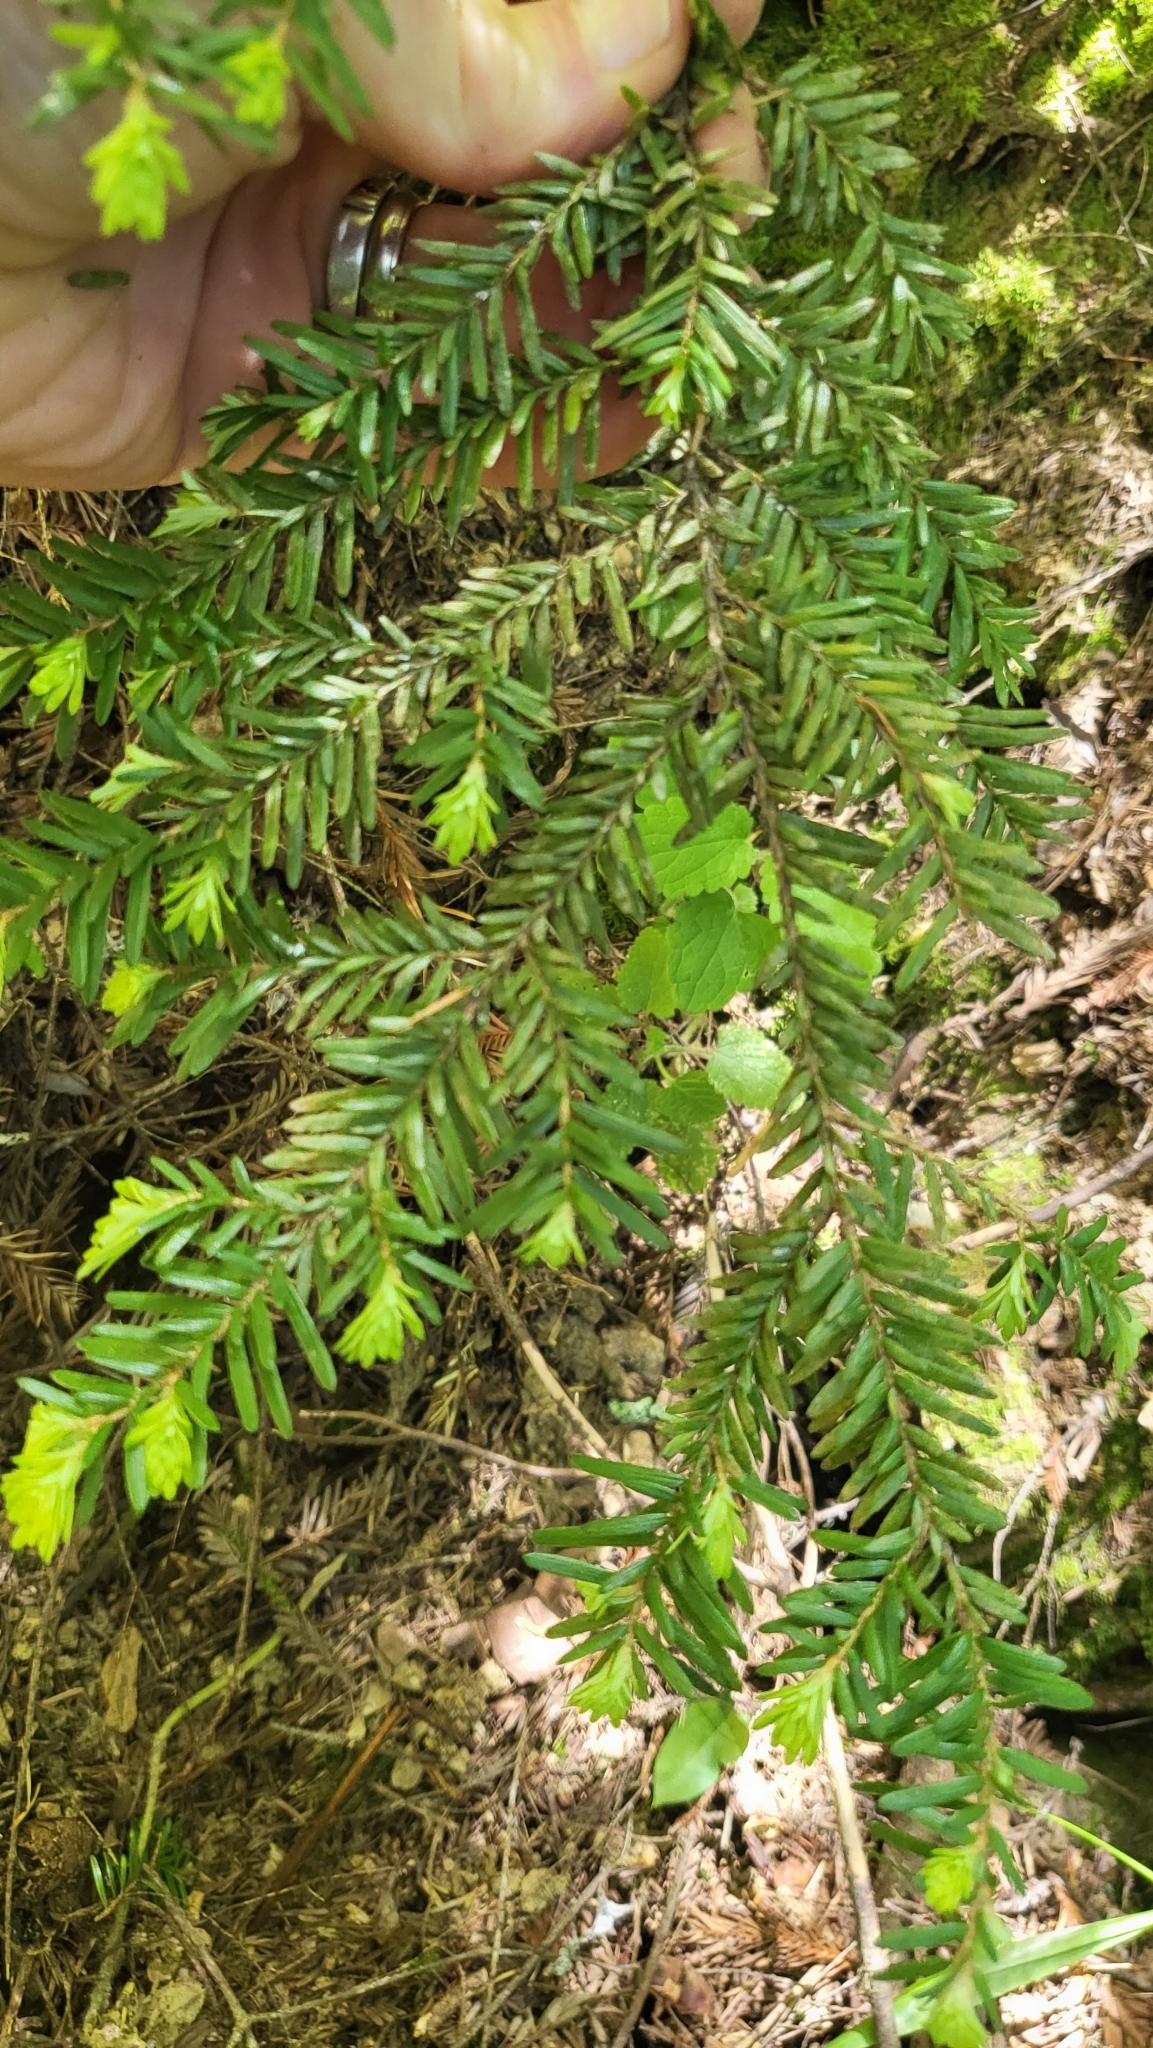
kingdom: Plantae
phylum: Tracheophyta
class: Pinopsida
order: Pinales
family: Pinaceae
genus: Tsuga
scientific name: Tsuga heterophylla
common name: Western hemlock
